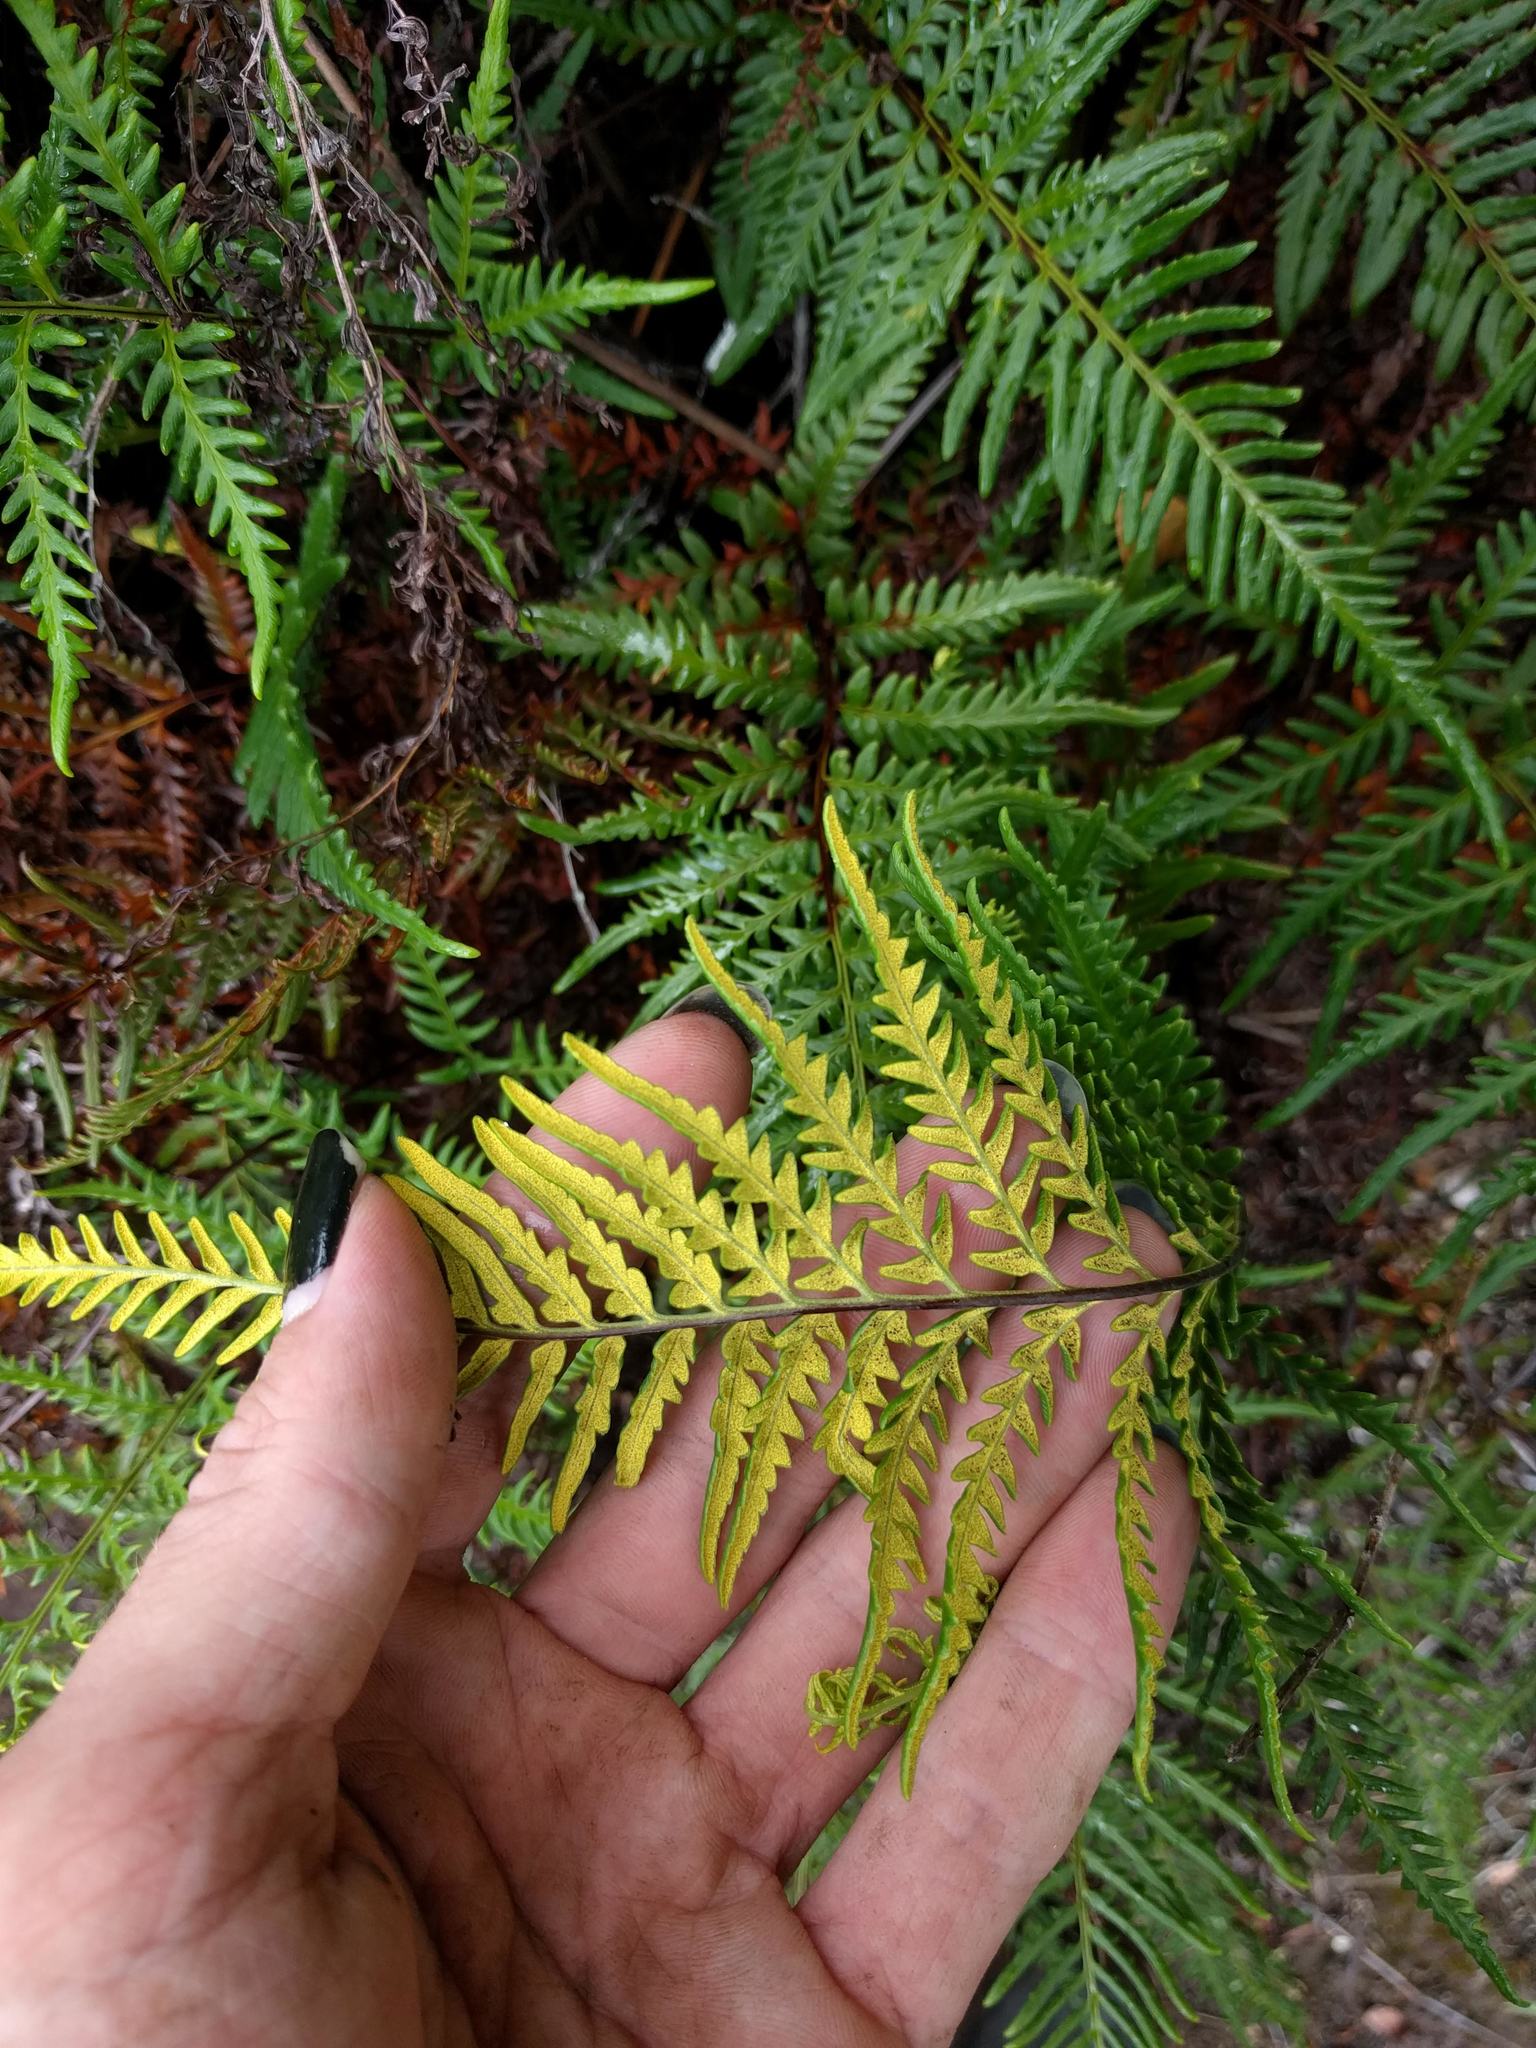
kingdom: Plantae
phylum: Tracheophyta
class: Polypodiopsida
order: Polypodiales
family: Pteridaceae
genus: Pityrogramma
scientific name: Pityrogramma austroamericana
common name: Leatherleaf goldback fern
